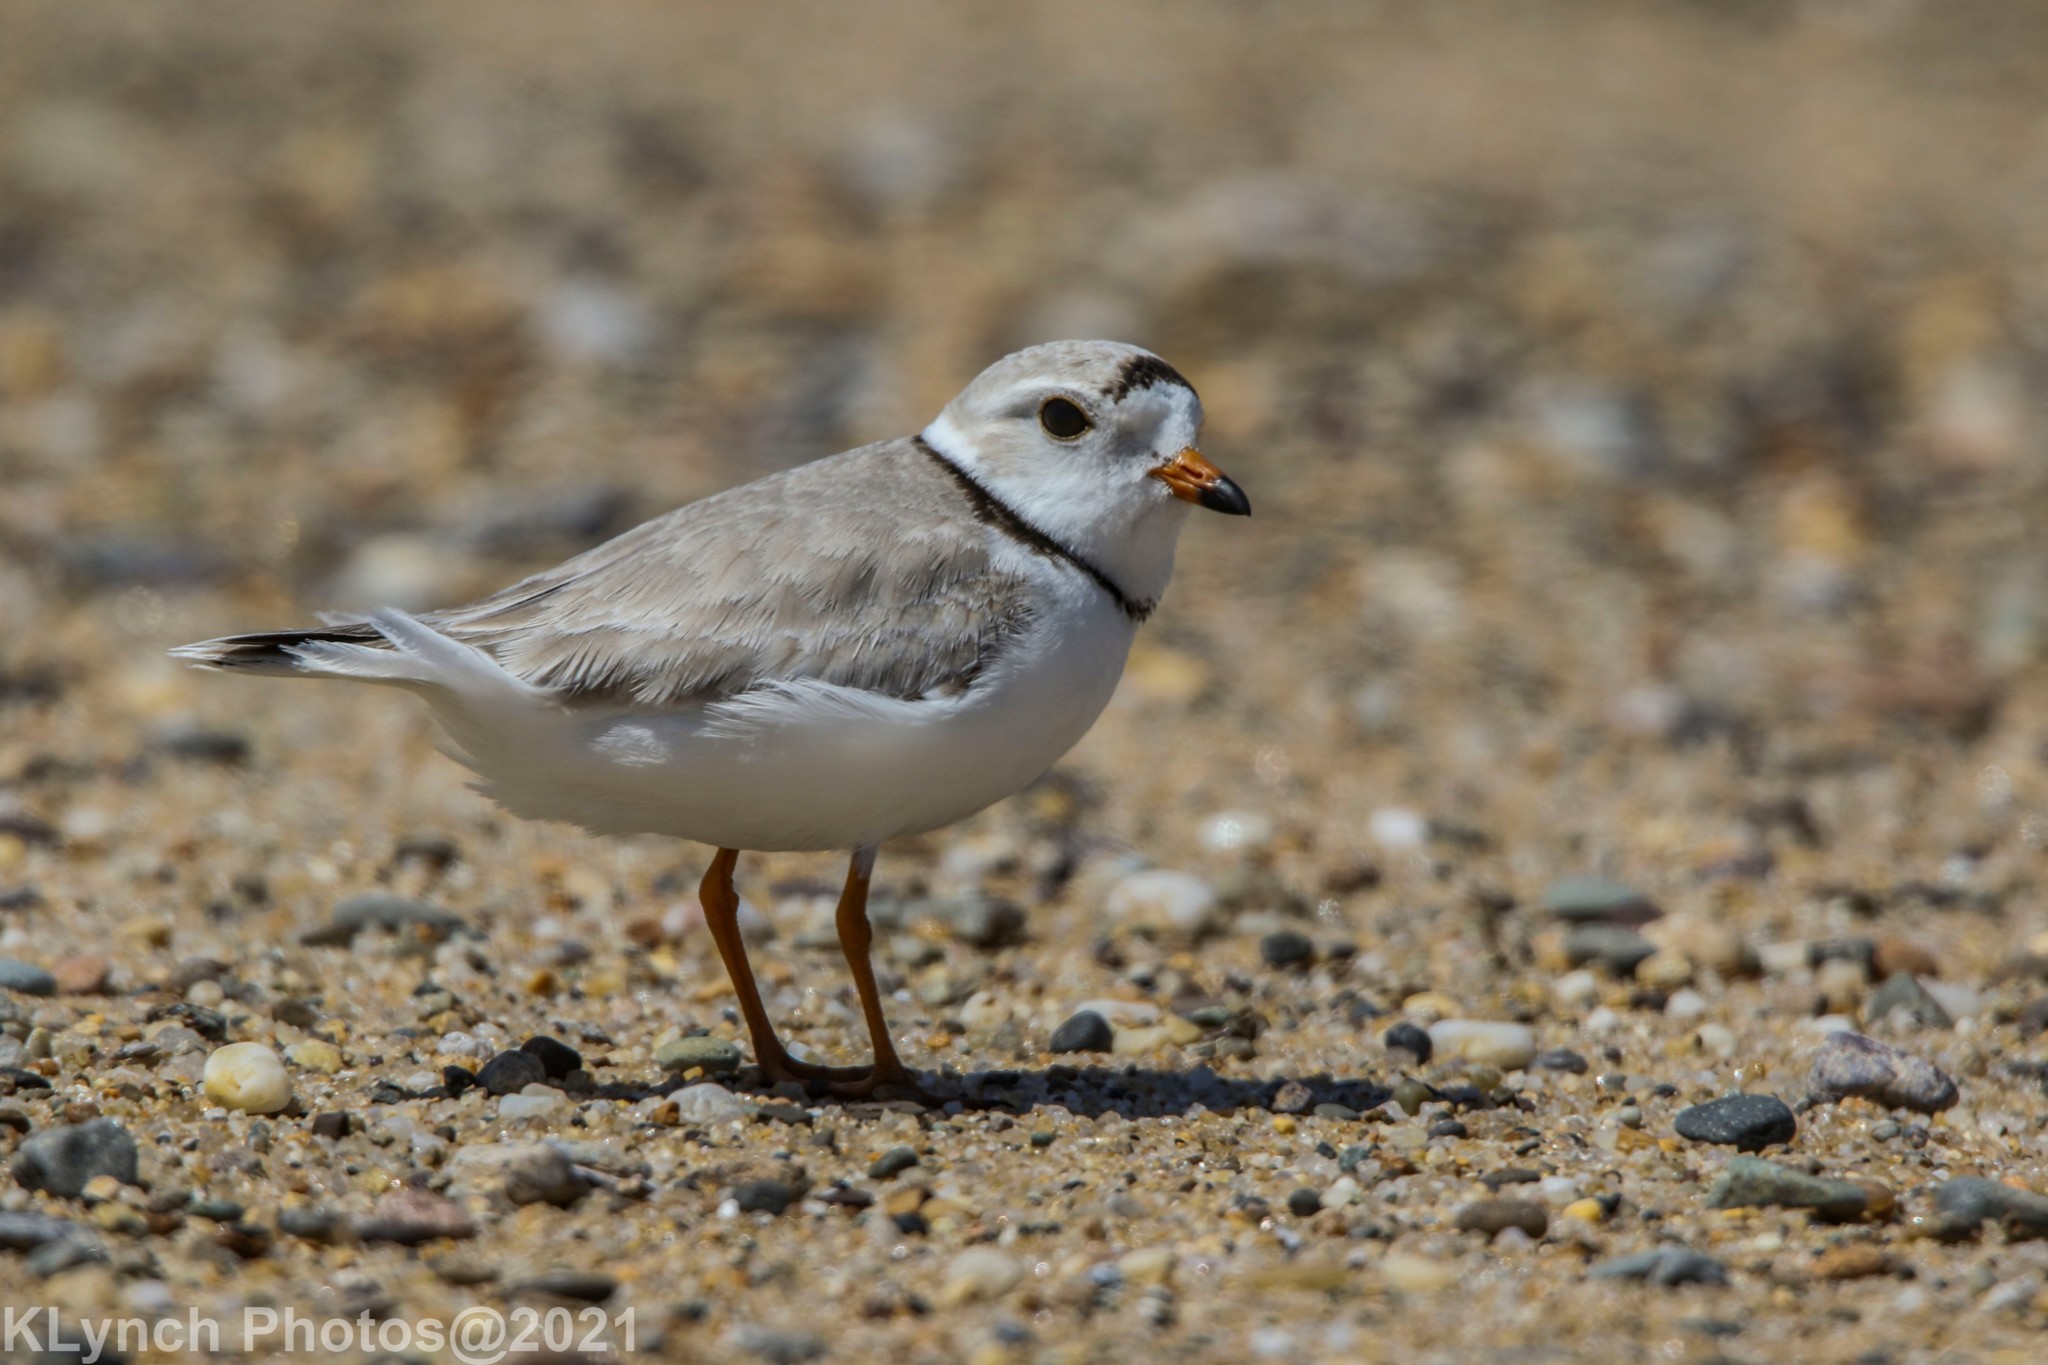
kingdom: Animalia
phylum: Chordata
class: Aves
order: Charadriiformes
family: Charadriidae
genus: Charadrius
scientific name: Charadrius melodus
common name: Piping plover
